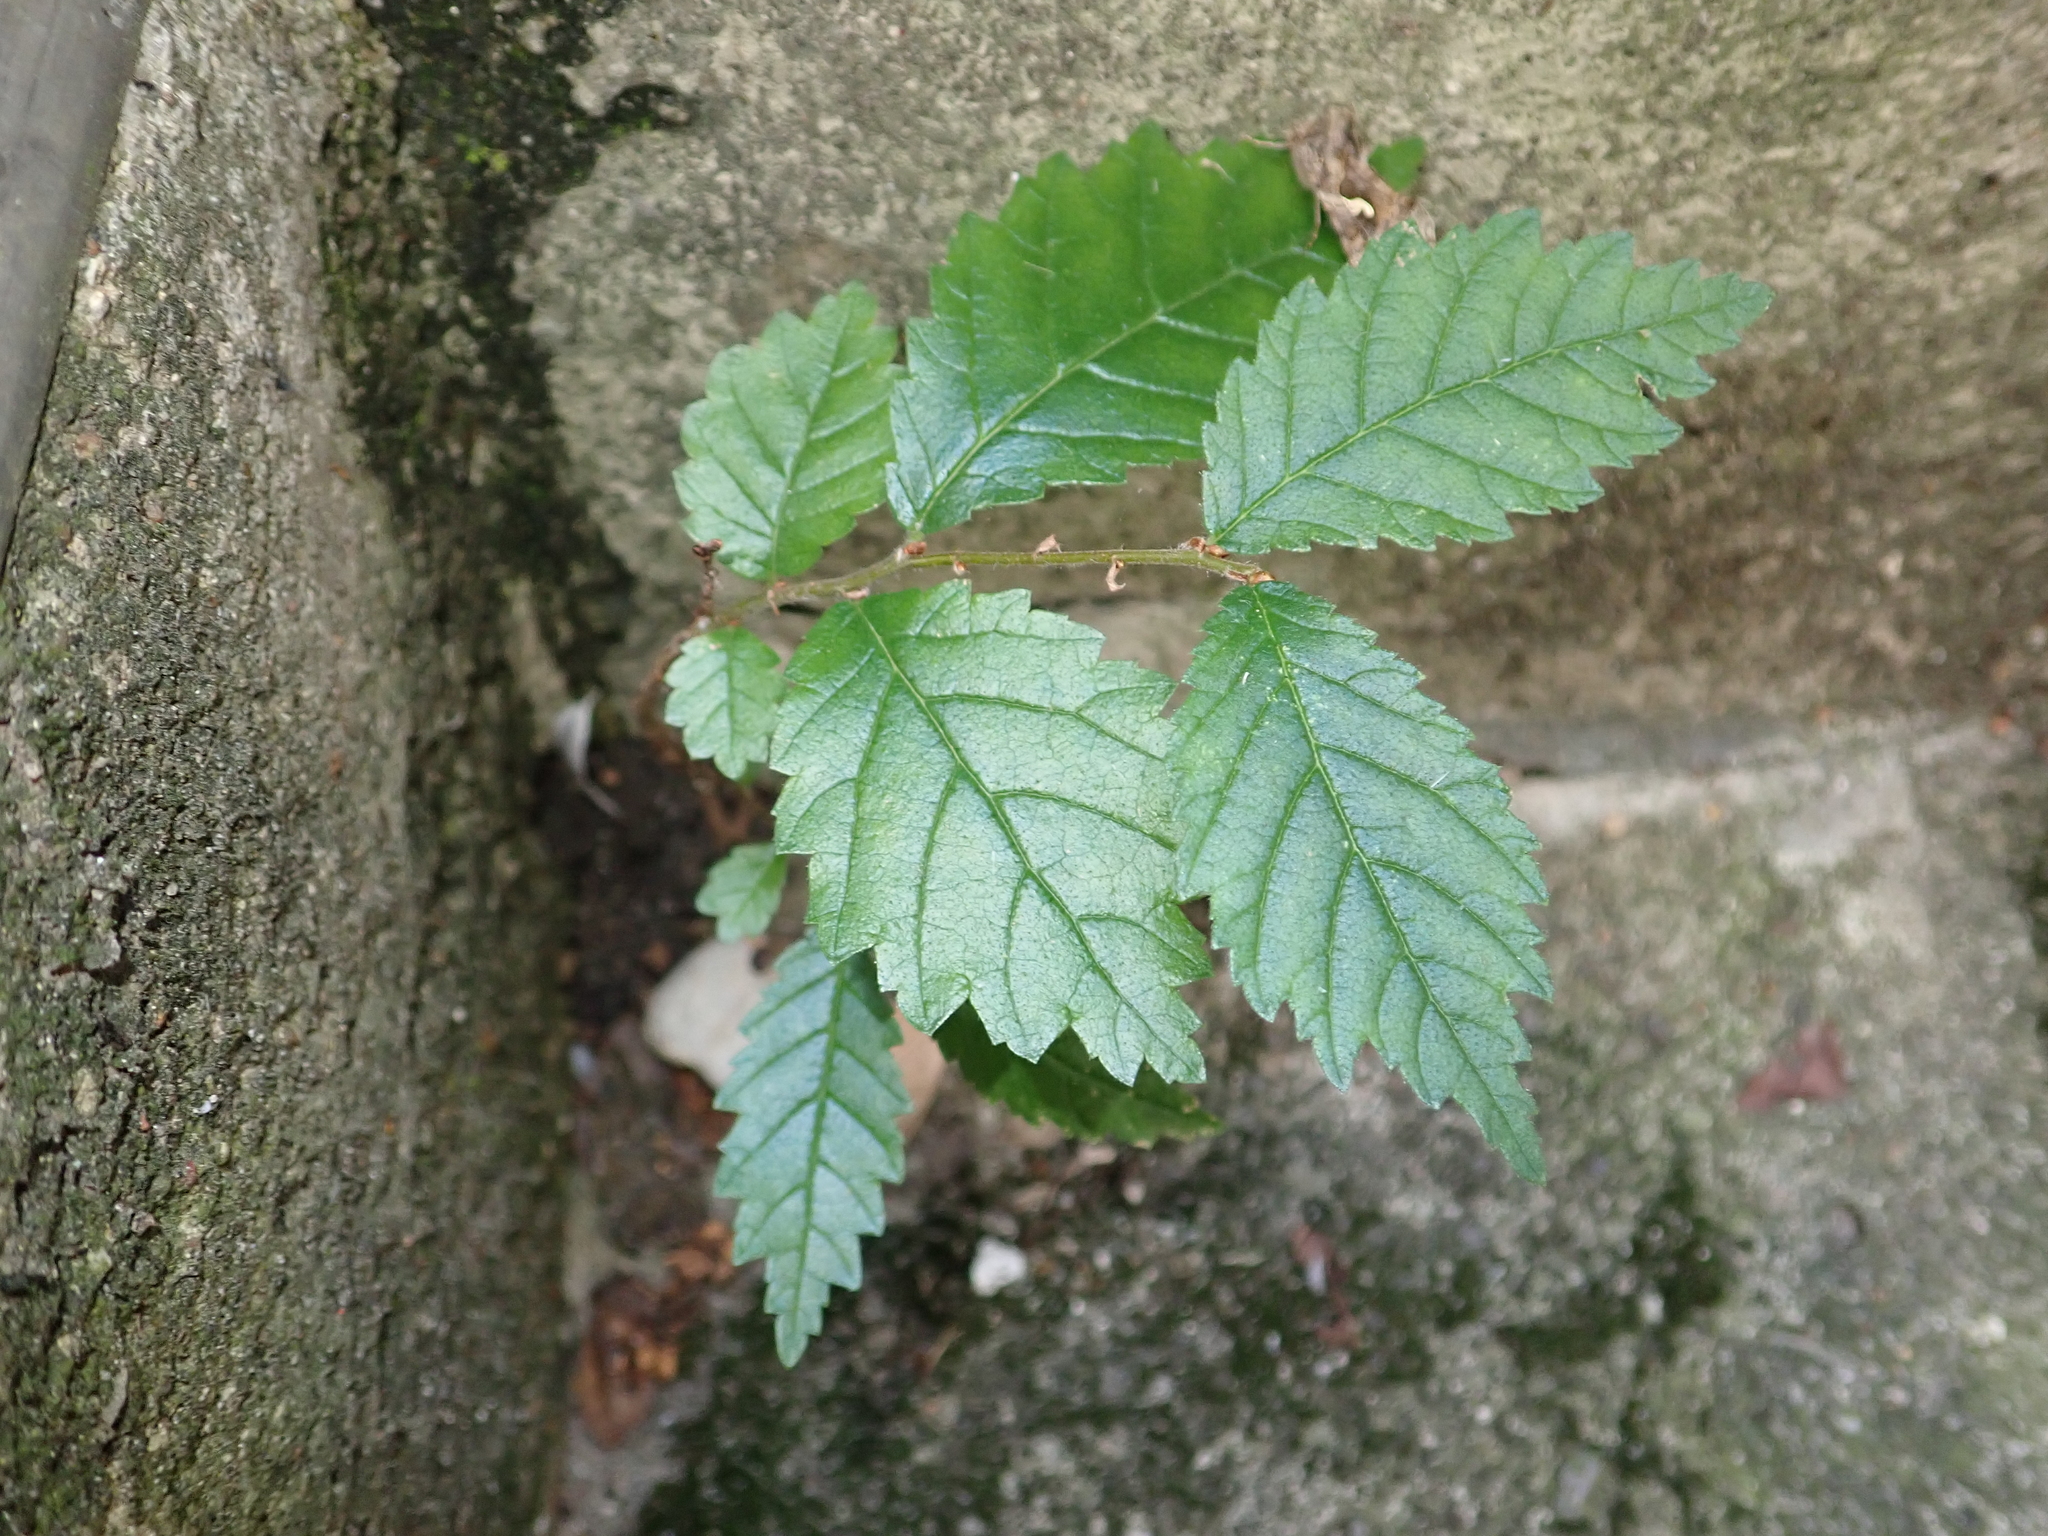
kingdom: Plantae
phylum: Tracheophyta
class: Magnoliopsida
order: Rosales
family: Ulmaceae
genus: Ulmus
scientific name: Ulmus minor
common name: Small-leaved elm
